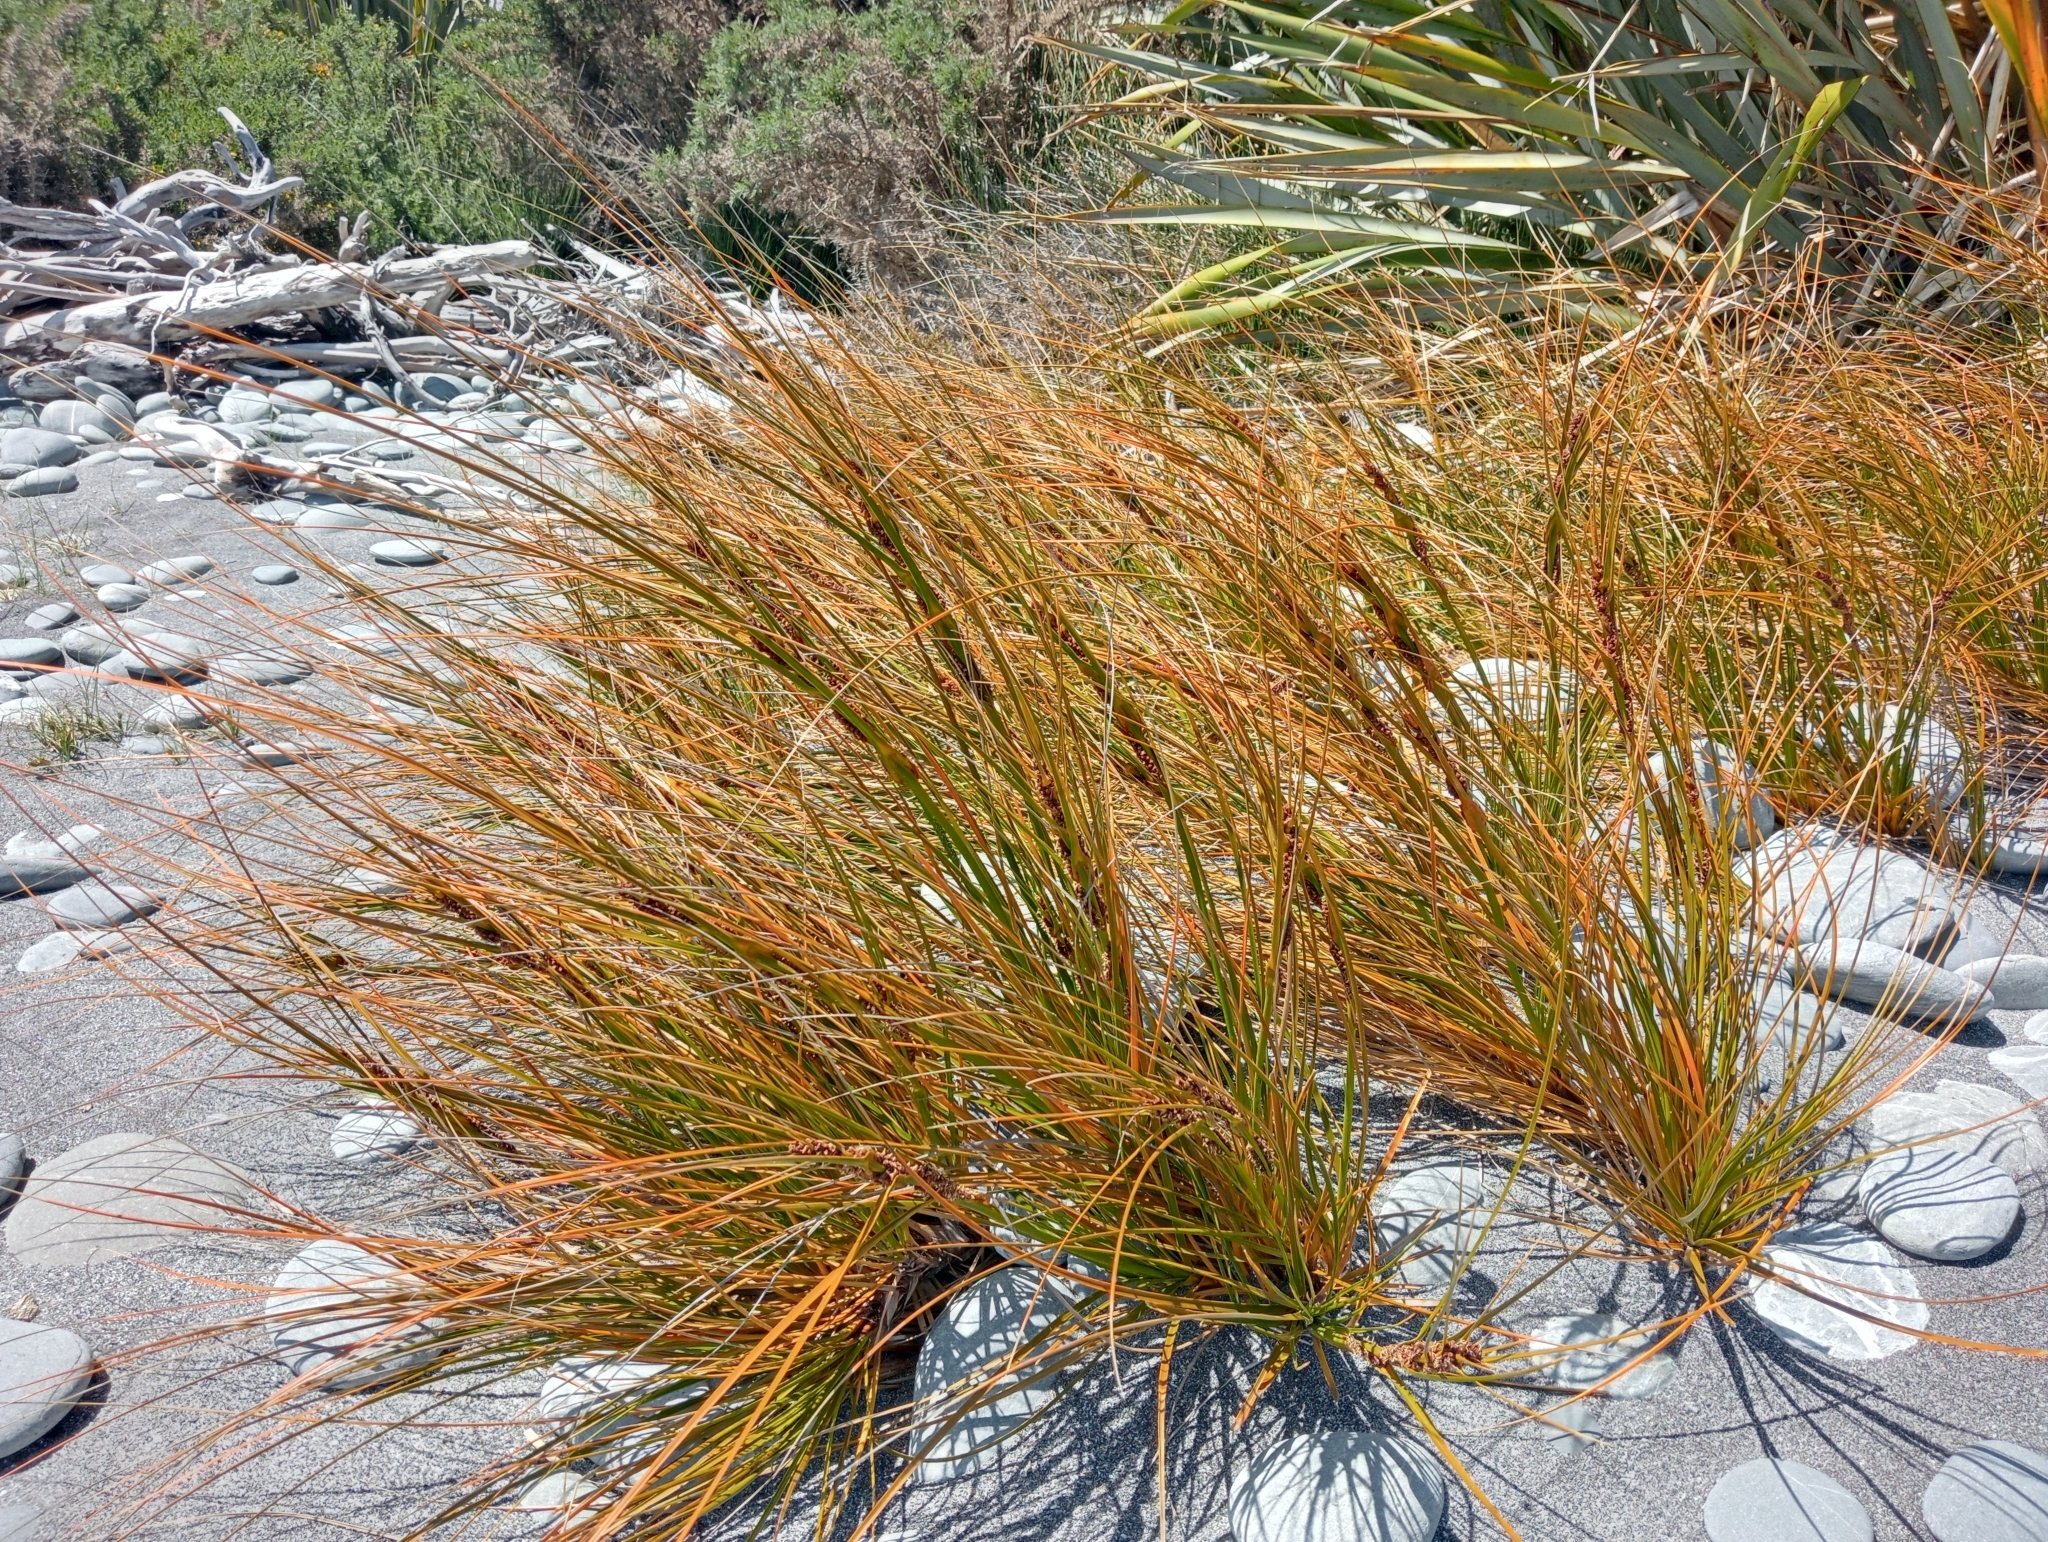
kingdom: Plantae
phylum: Tracheophyta
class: Liliopsida
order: Poales
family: Cyperaceae
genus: Ficinia
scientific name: Ficinia spiralis
